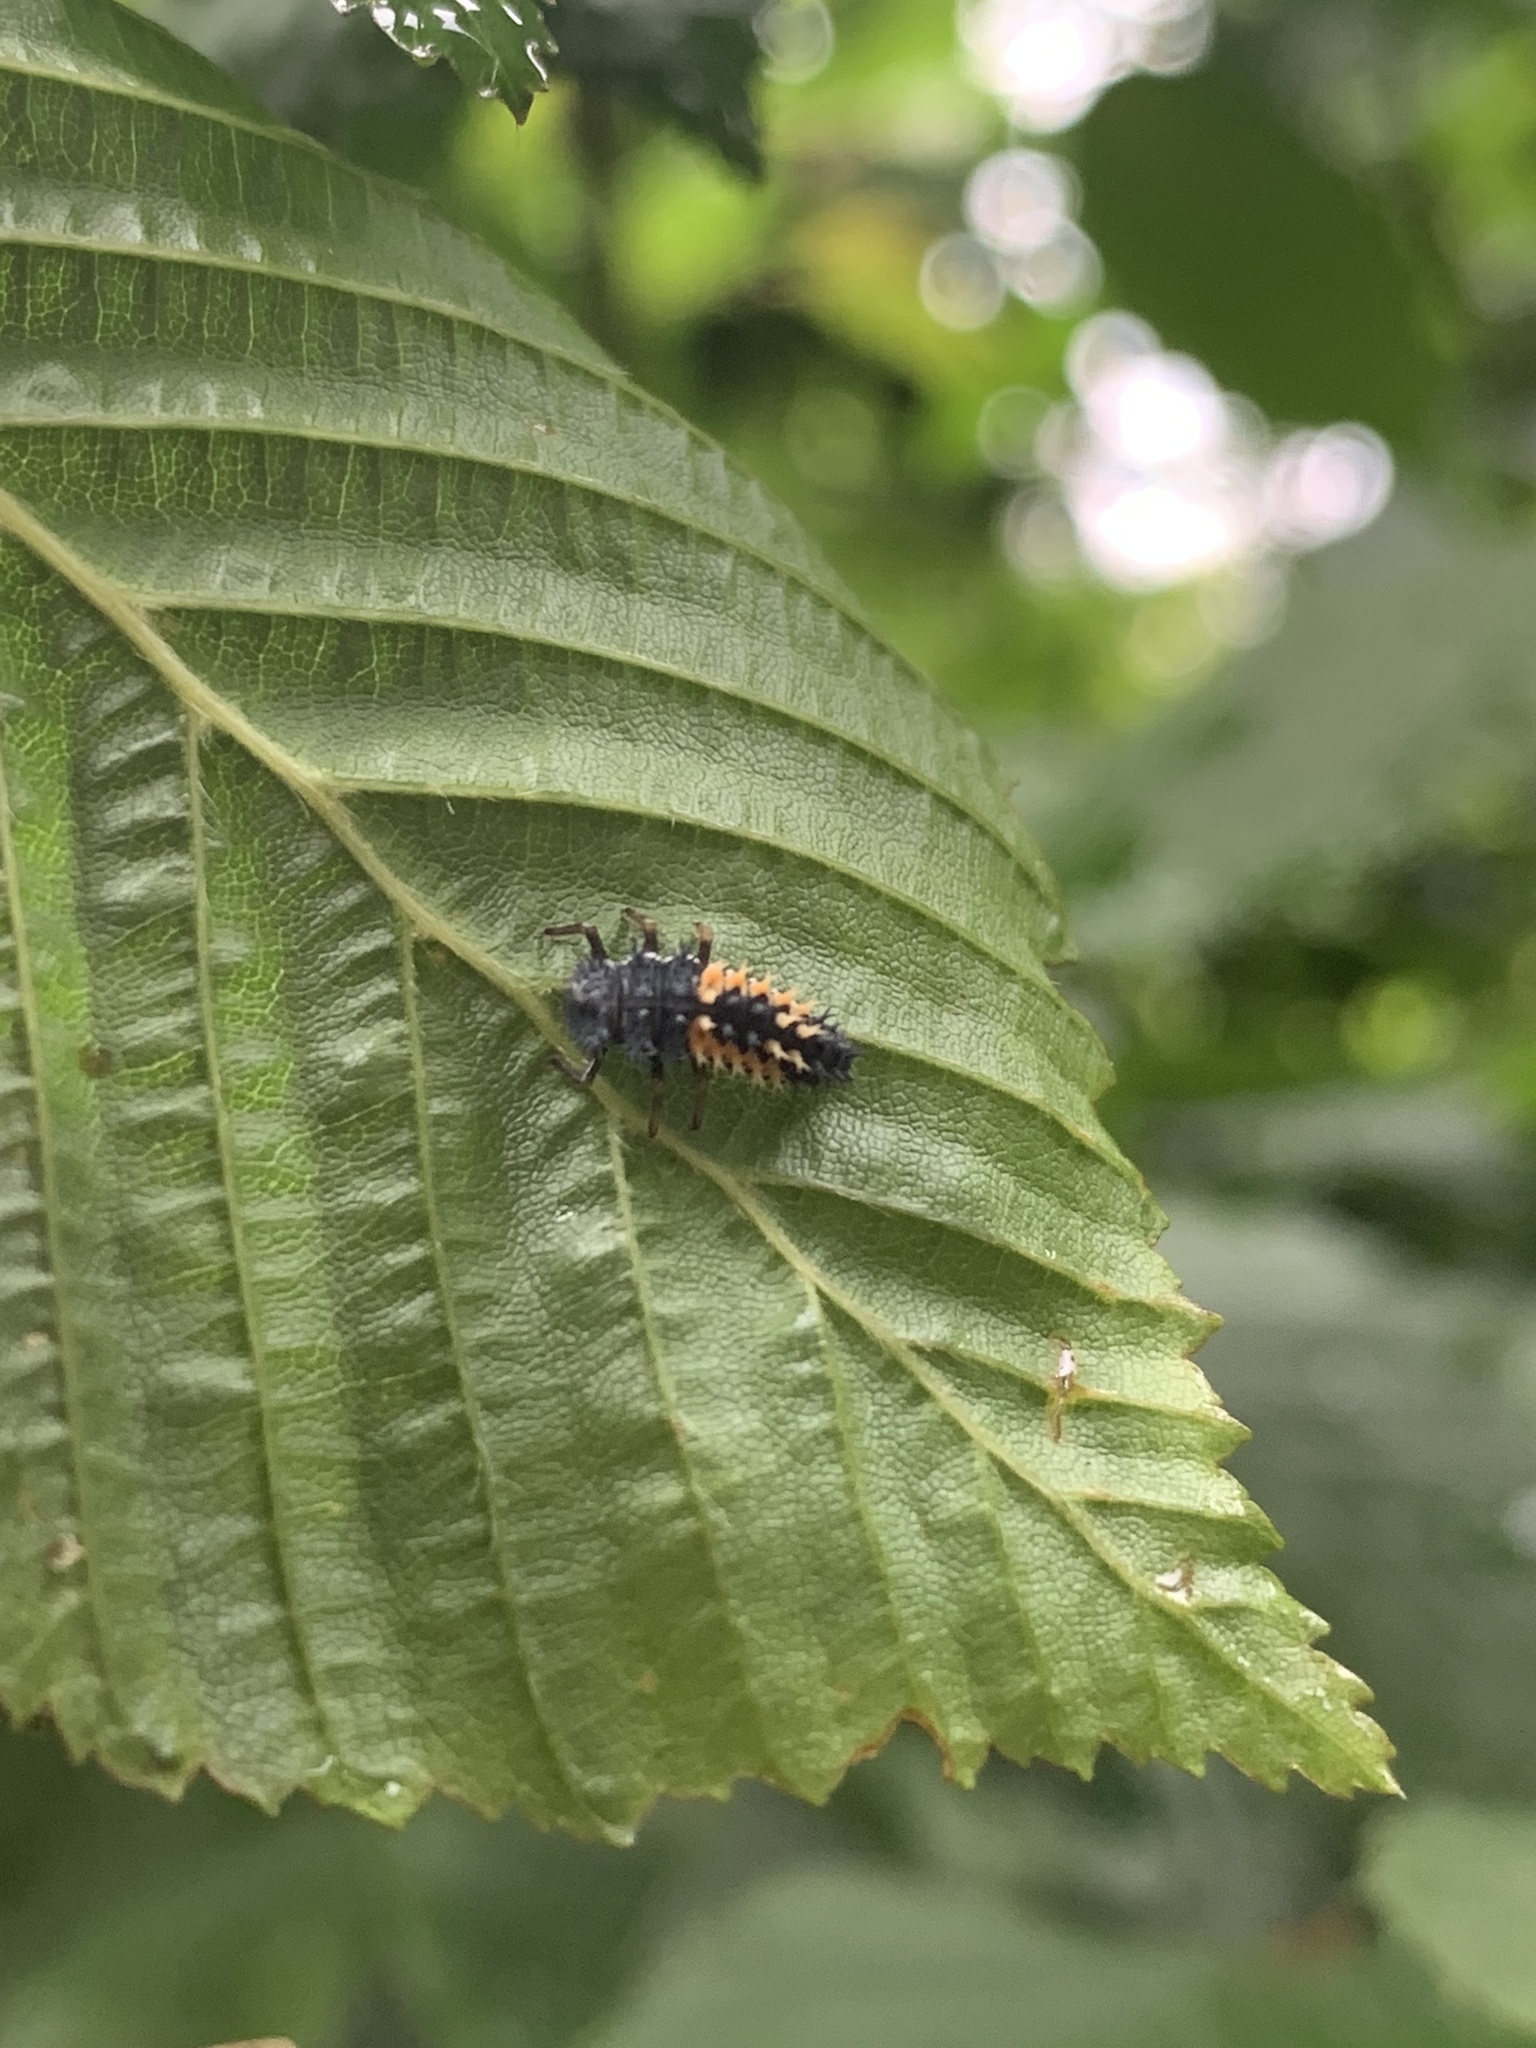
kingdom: Animalia
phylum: Arthropoda
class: Insecta
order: Coleoptera
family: Coccinellidae
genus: Harmonia
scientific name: Harmonia axyridis
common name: Harlequin ladybird
